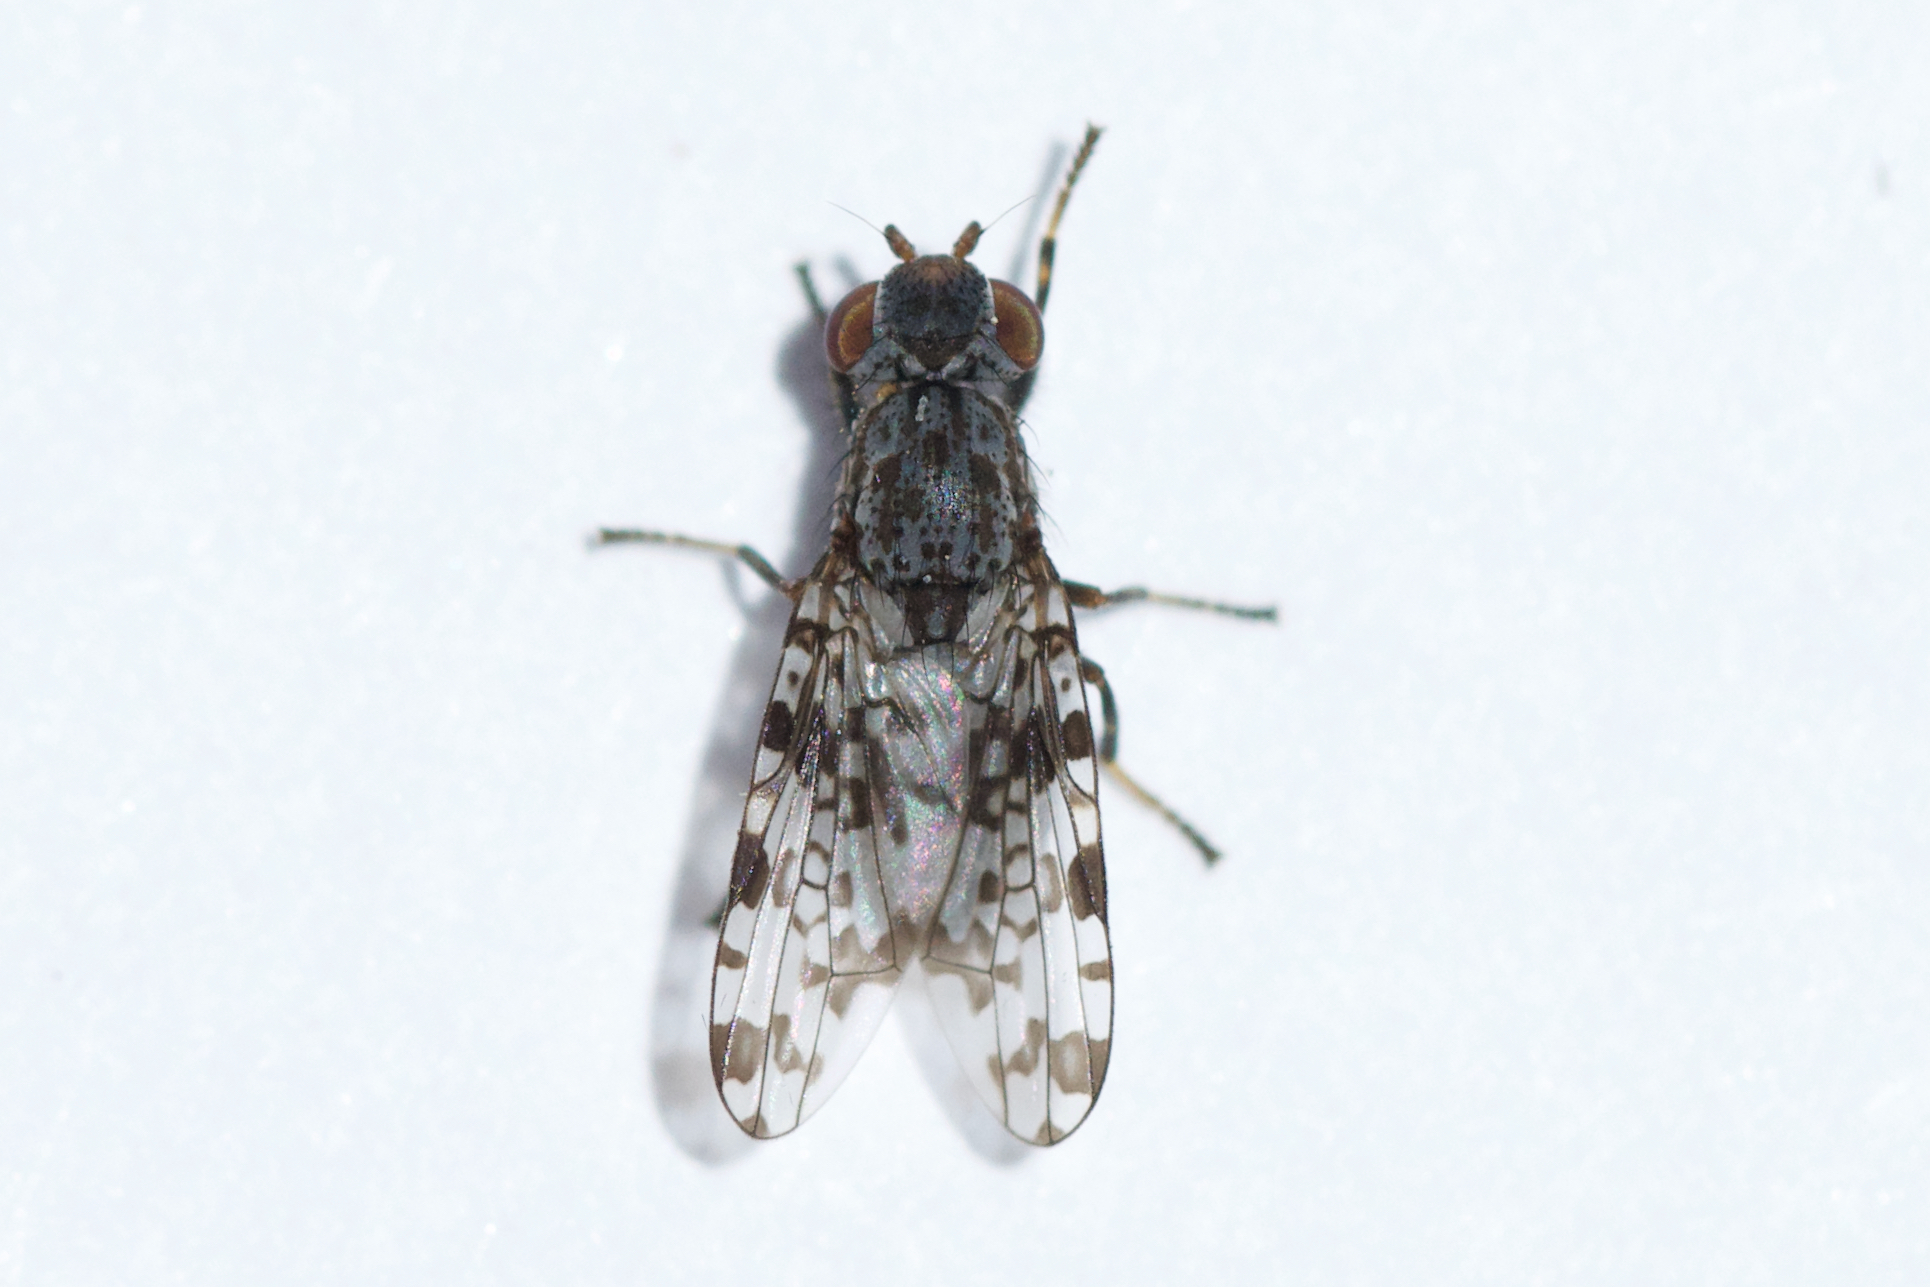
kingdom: Animalia
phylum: Arthropoda
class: Insecta
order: Diptera
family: Ulidiidae
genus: Pseudotephritis
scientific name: Pseudotephritis corticalis
